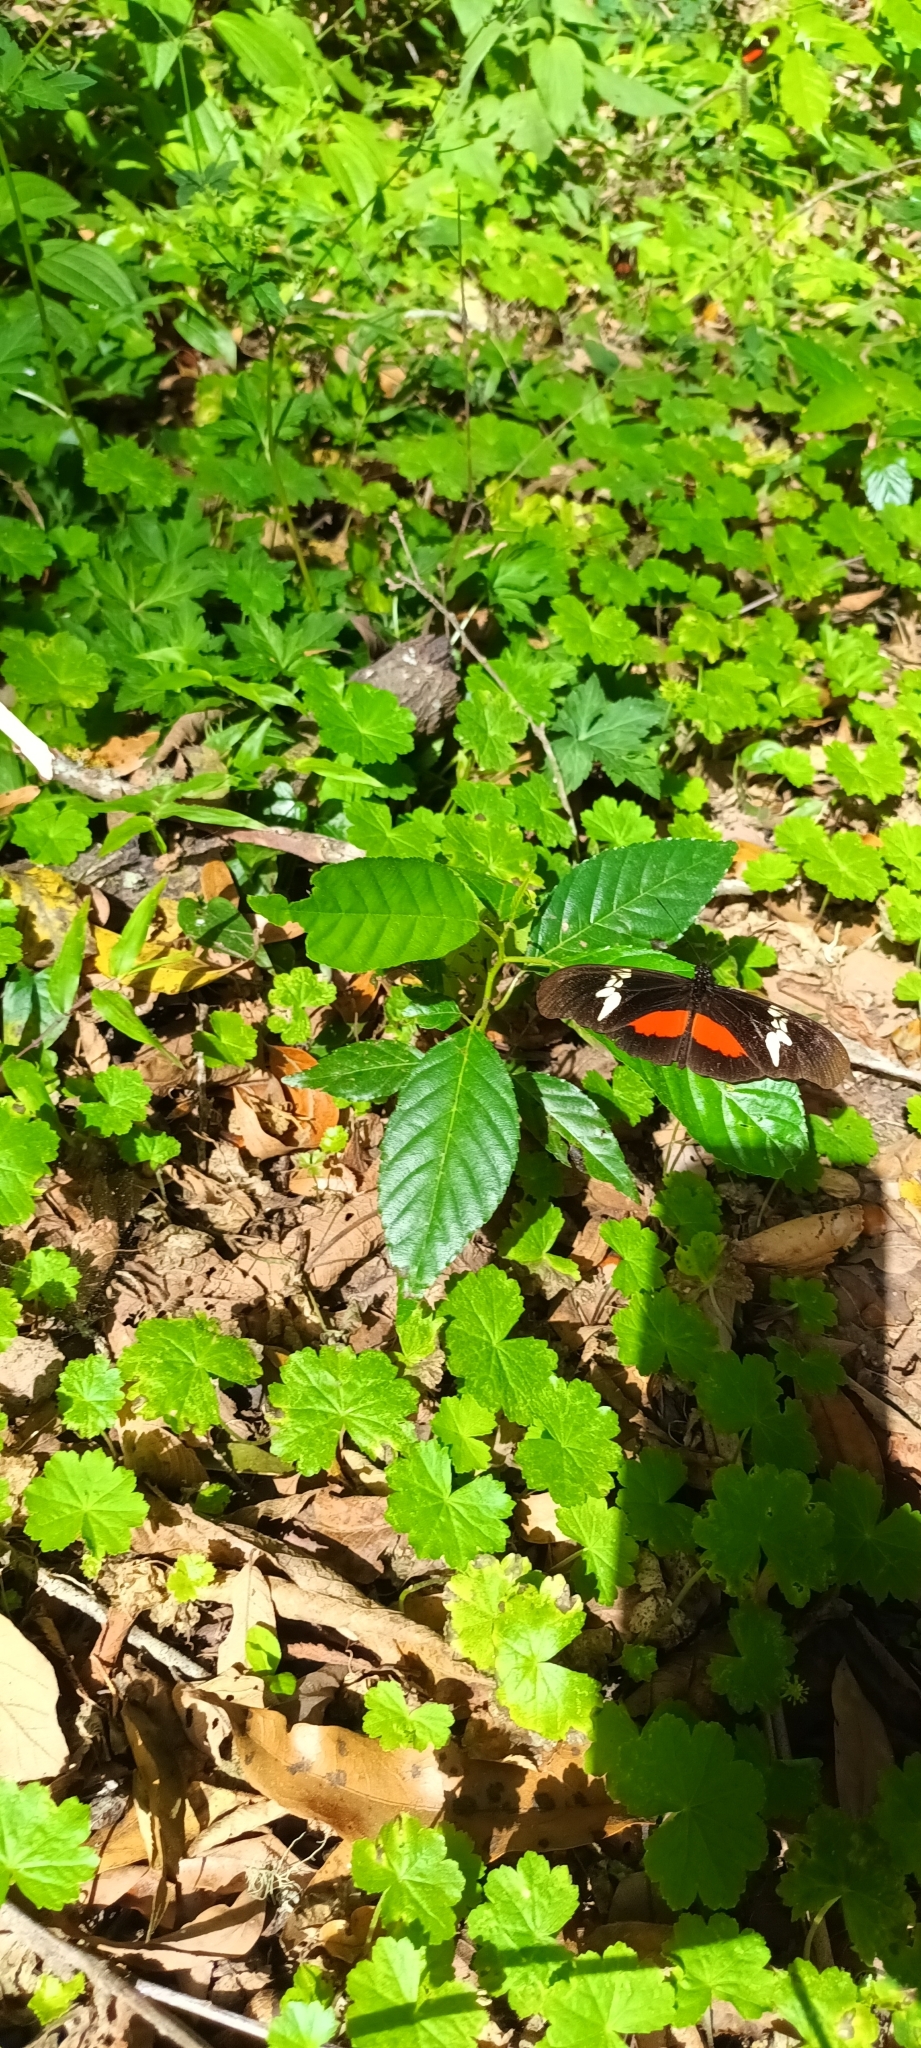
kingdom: Animalia
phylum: Arthropoda
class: Insecta
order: Lepidoptera
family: Nymphalidae
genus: Heliconius
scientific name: Heliconius hortense
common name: Mexican longwing
